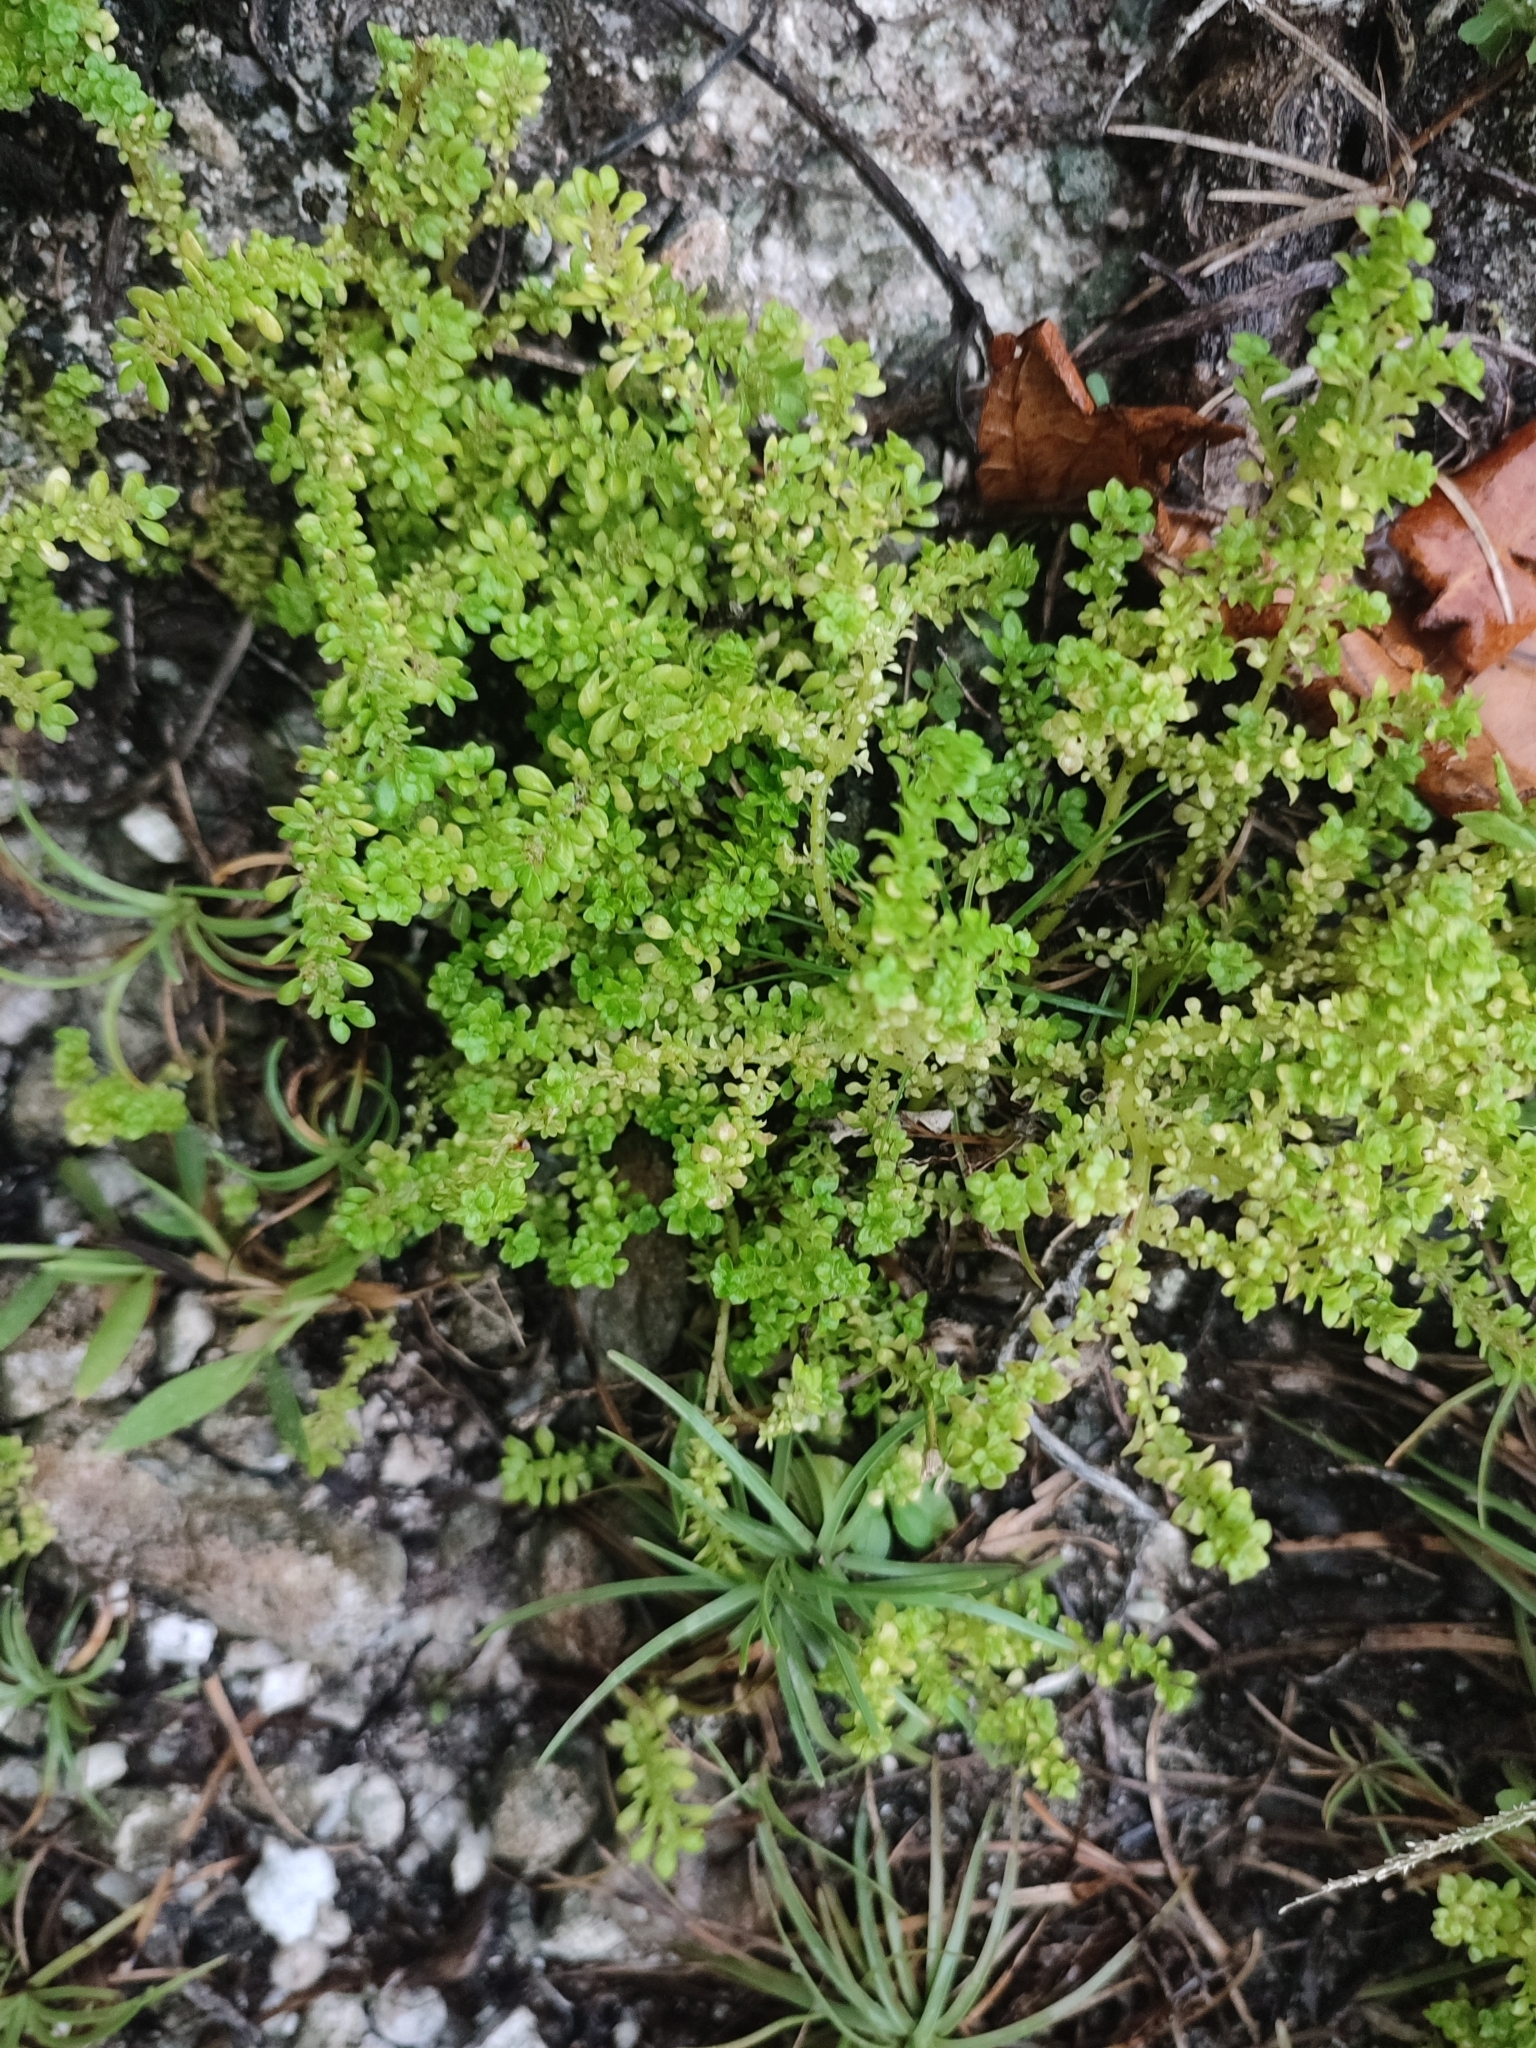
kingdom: Plantae
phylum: Tracheophyta
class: Magnoliopsida
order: Rosales
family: Urticaceae
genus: Pilea
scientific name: Pilea microphylla
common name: Artillery-plant
